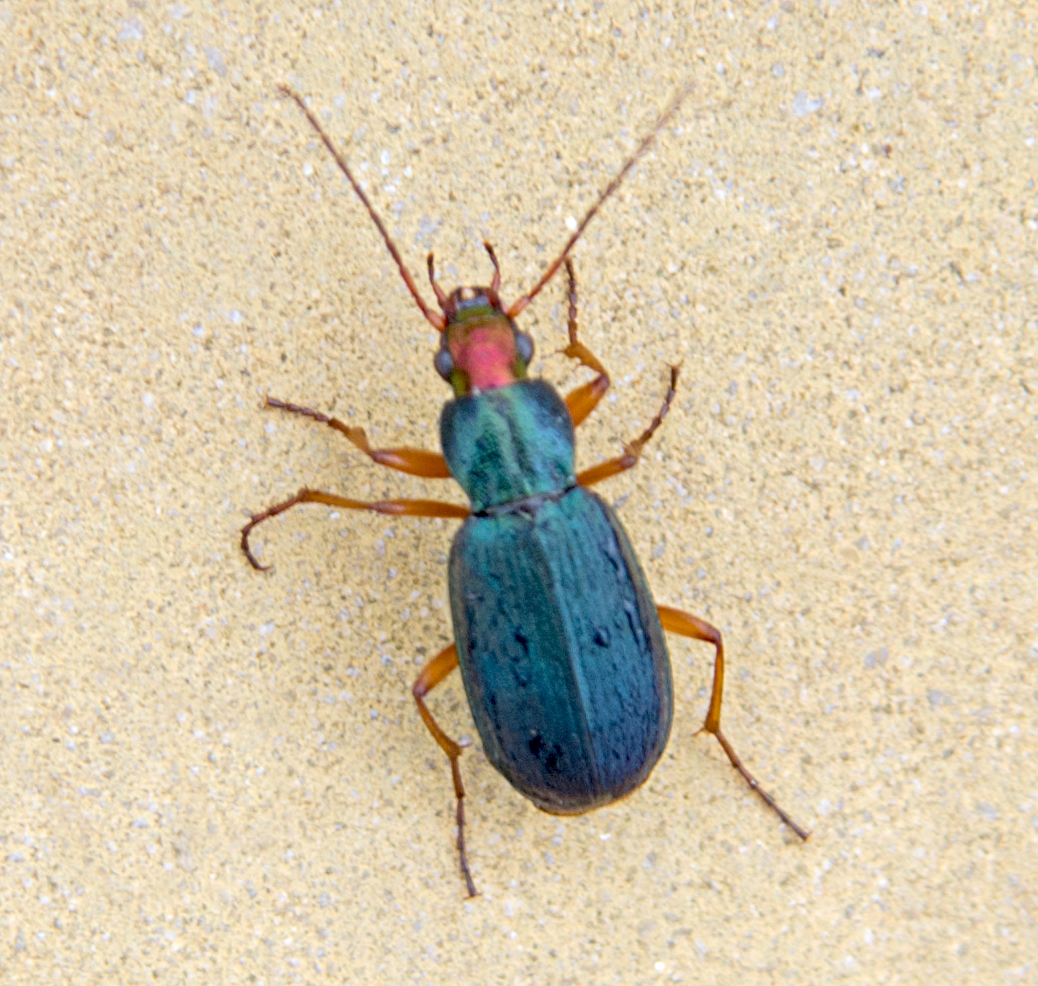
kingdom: Animalia
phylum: Arthropoda
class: Insecta
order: Coleoptera
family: Carabidae
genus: Chlaenius
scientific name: Chlaenius aeneocephalus
